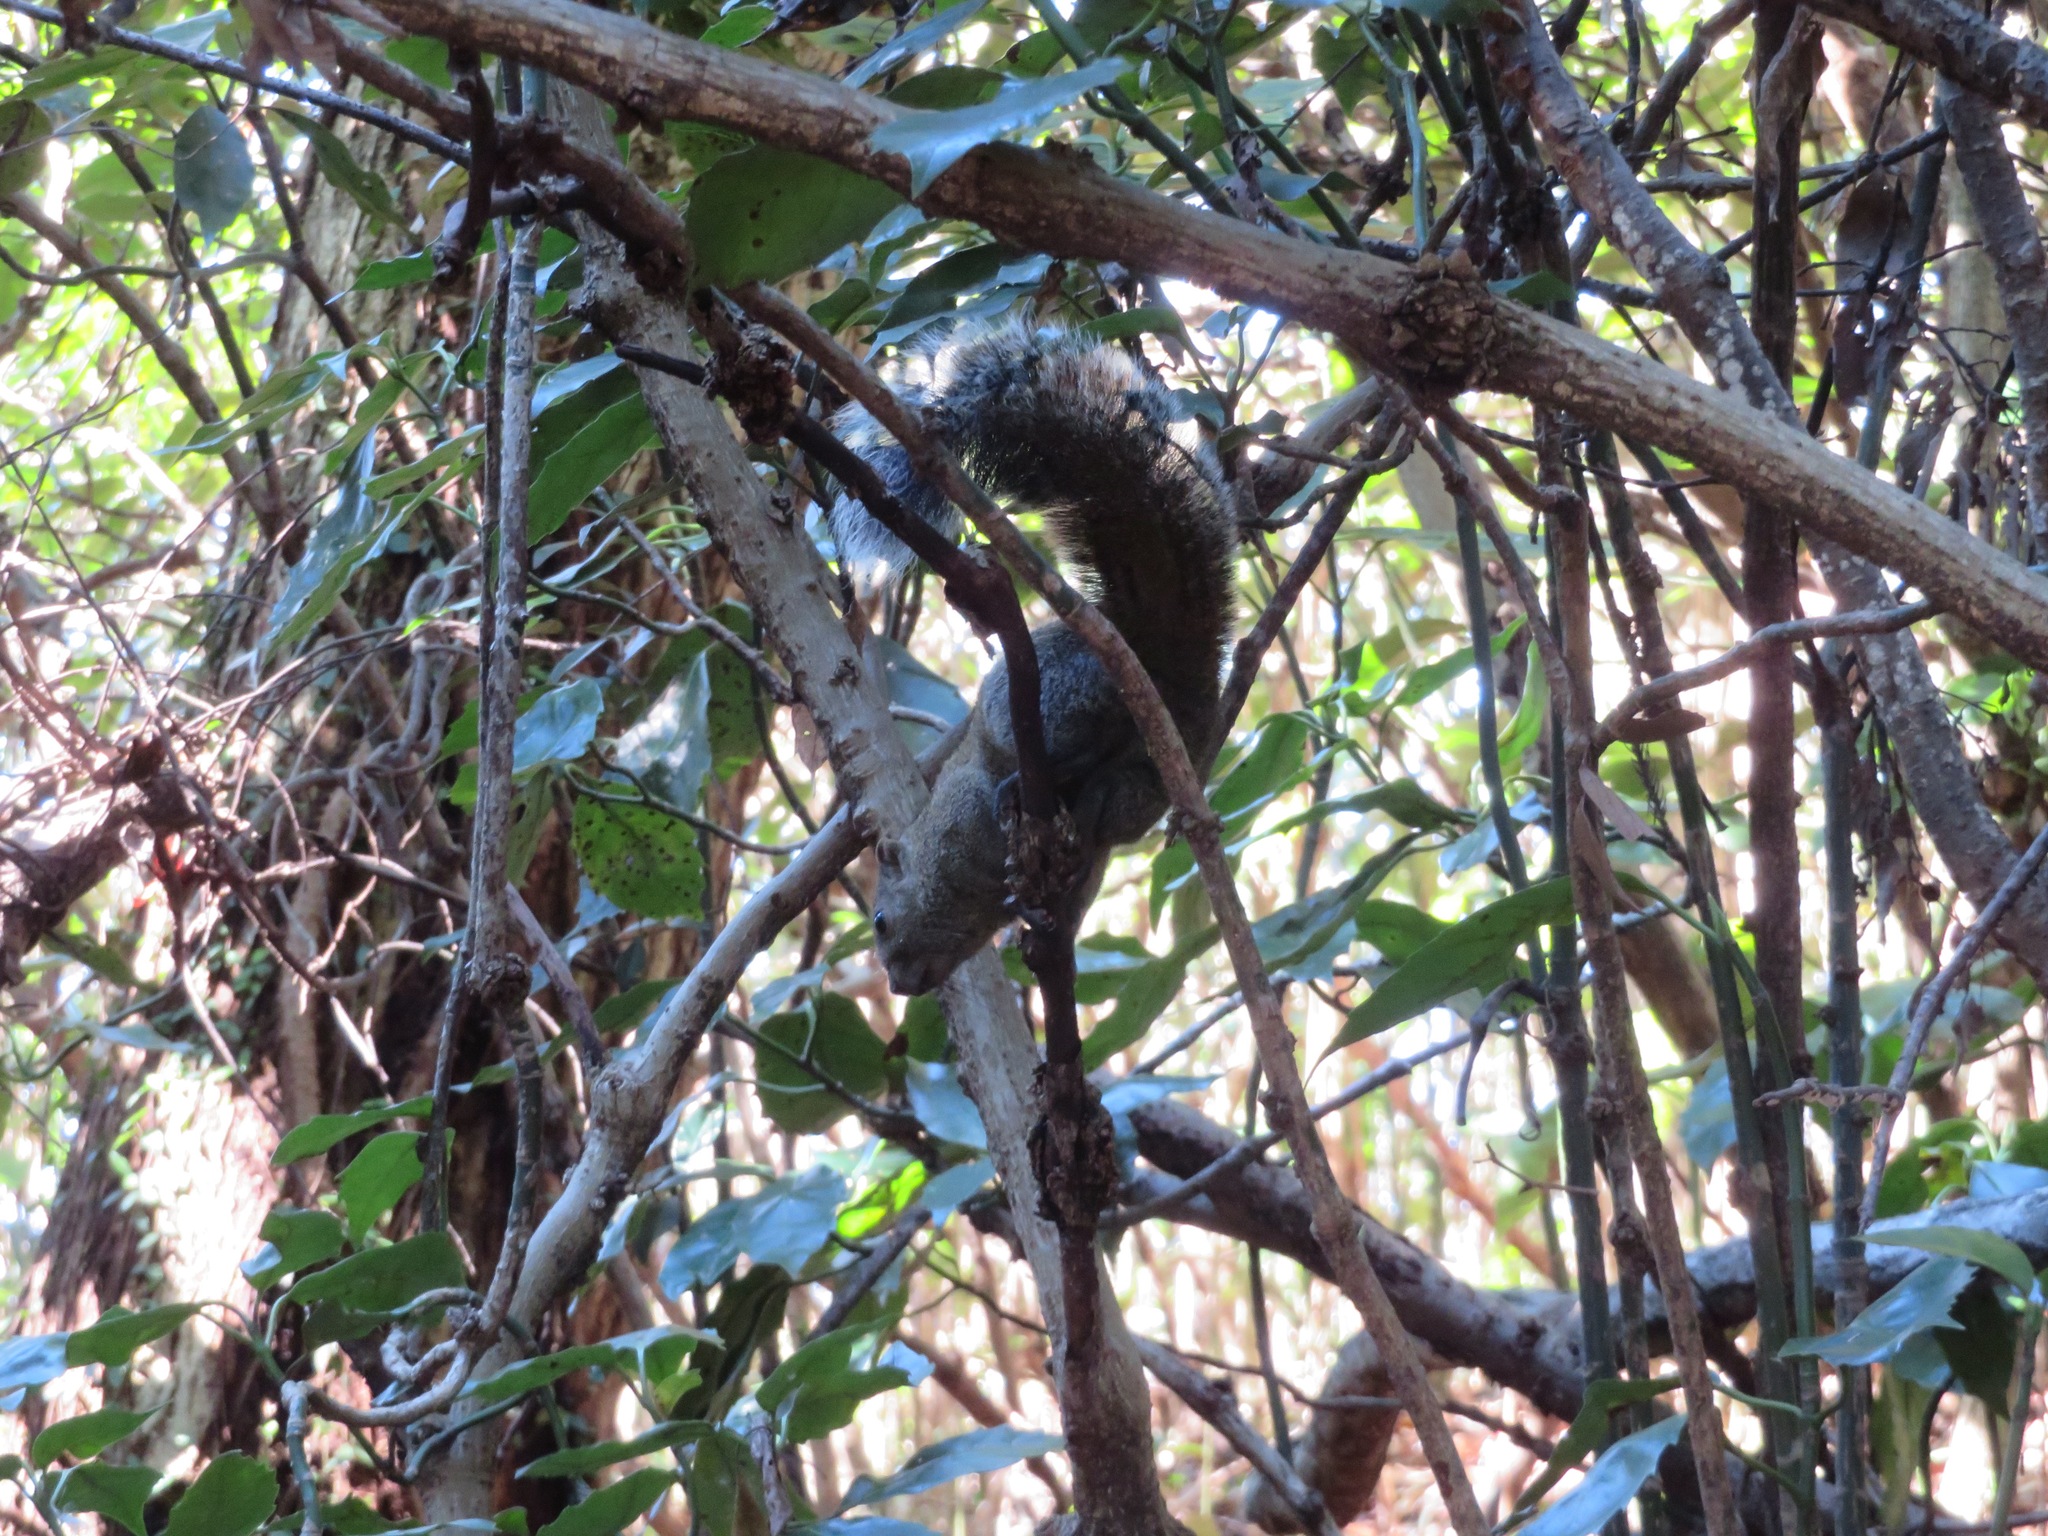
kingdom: Animalia
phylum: Chordata
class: Mammalia
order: Rodentia
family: Sciuridae
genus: Callosciurus
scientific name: Callosciurus erythraeus
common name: Pallas's squirrel
